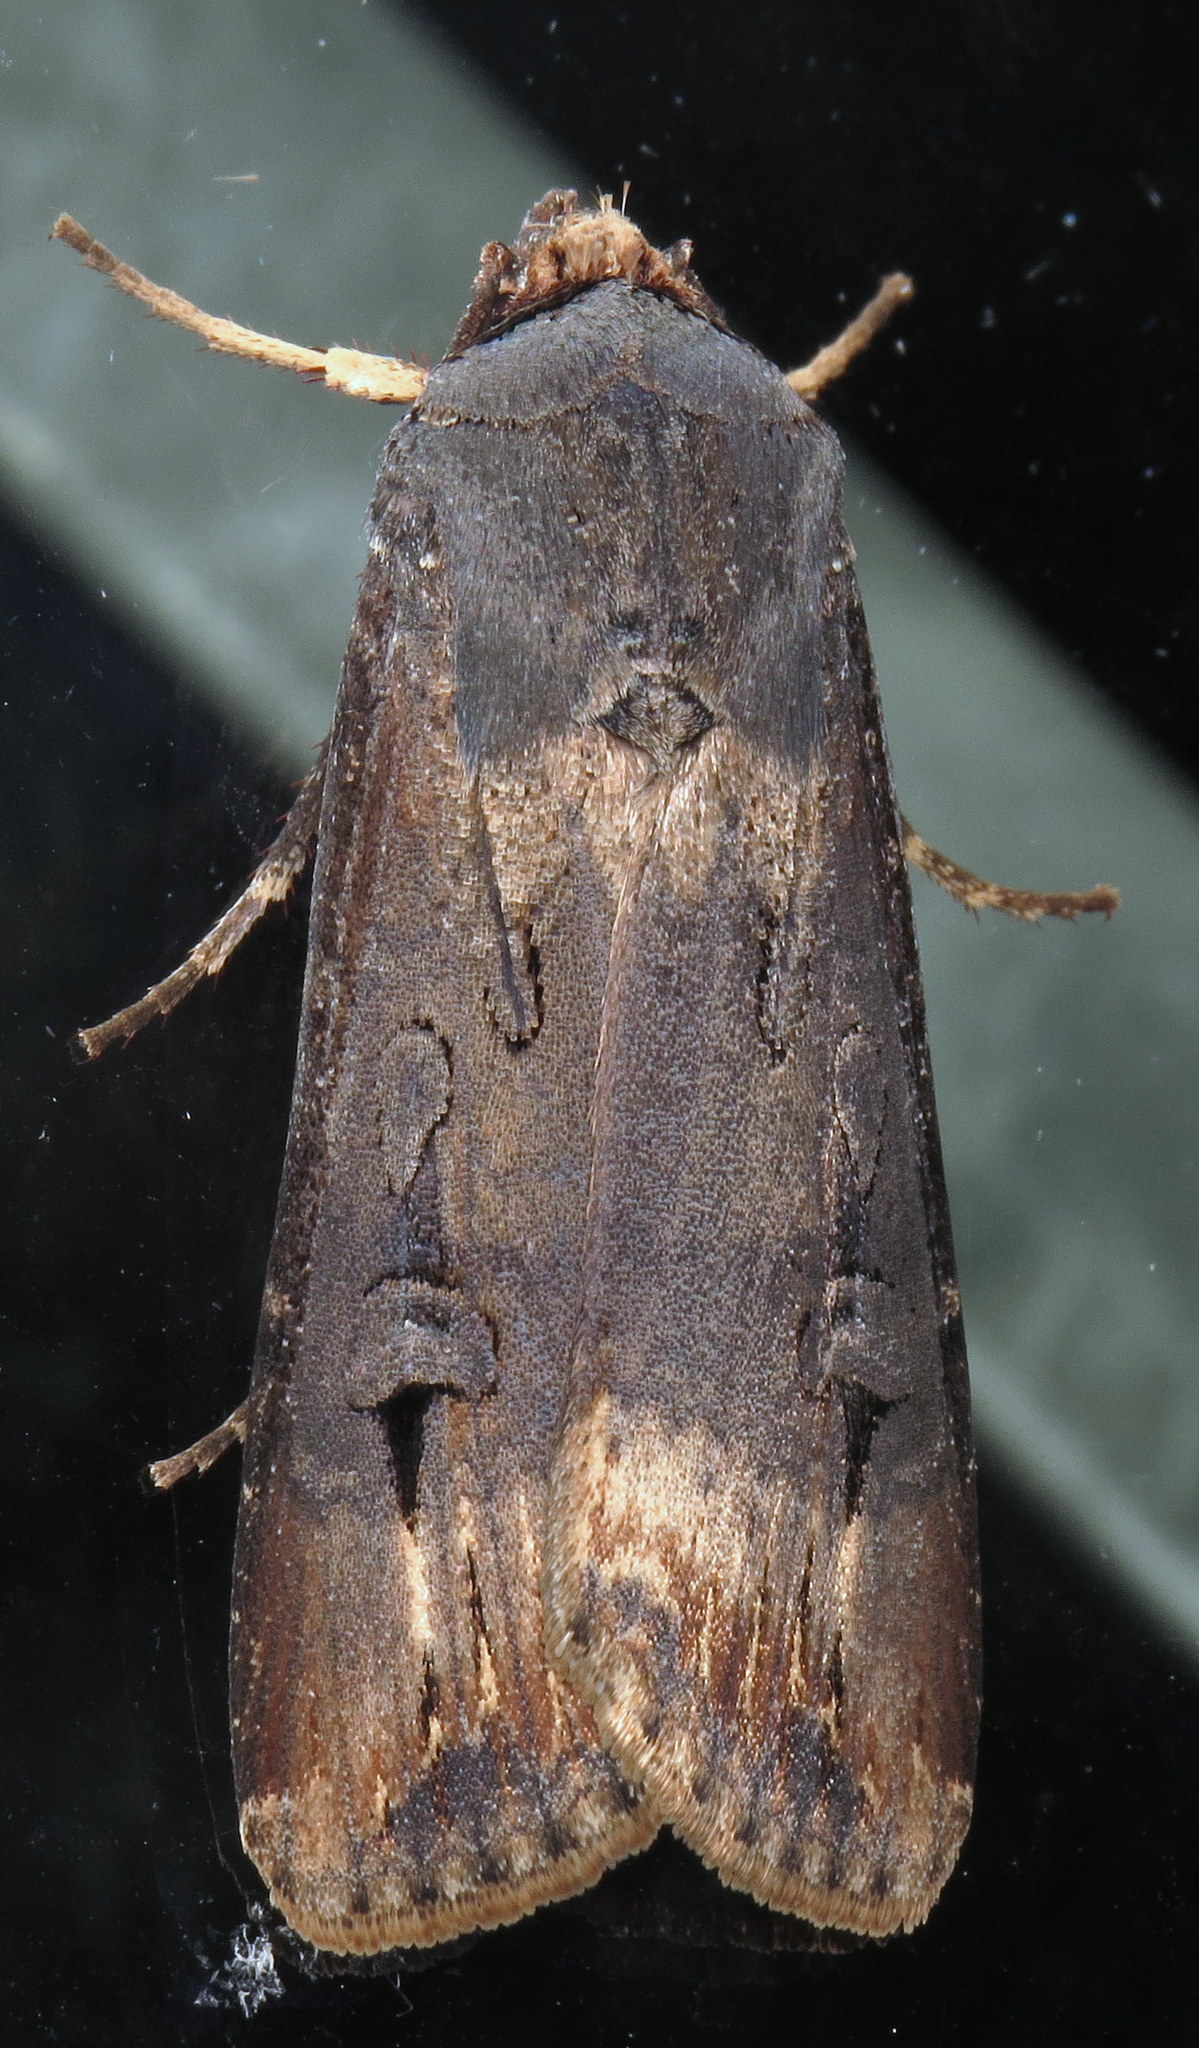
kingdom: Animalia
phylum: Arthropoda
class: Insecta
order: Lepidoptera
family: Noctuidae
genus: Agrotis
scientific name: Agrotis ipsilon
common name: Dark sword-grass
